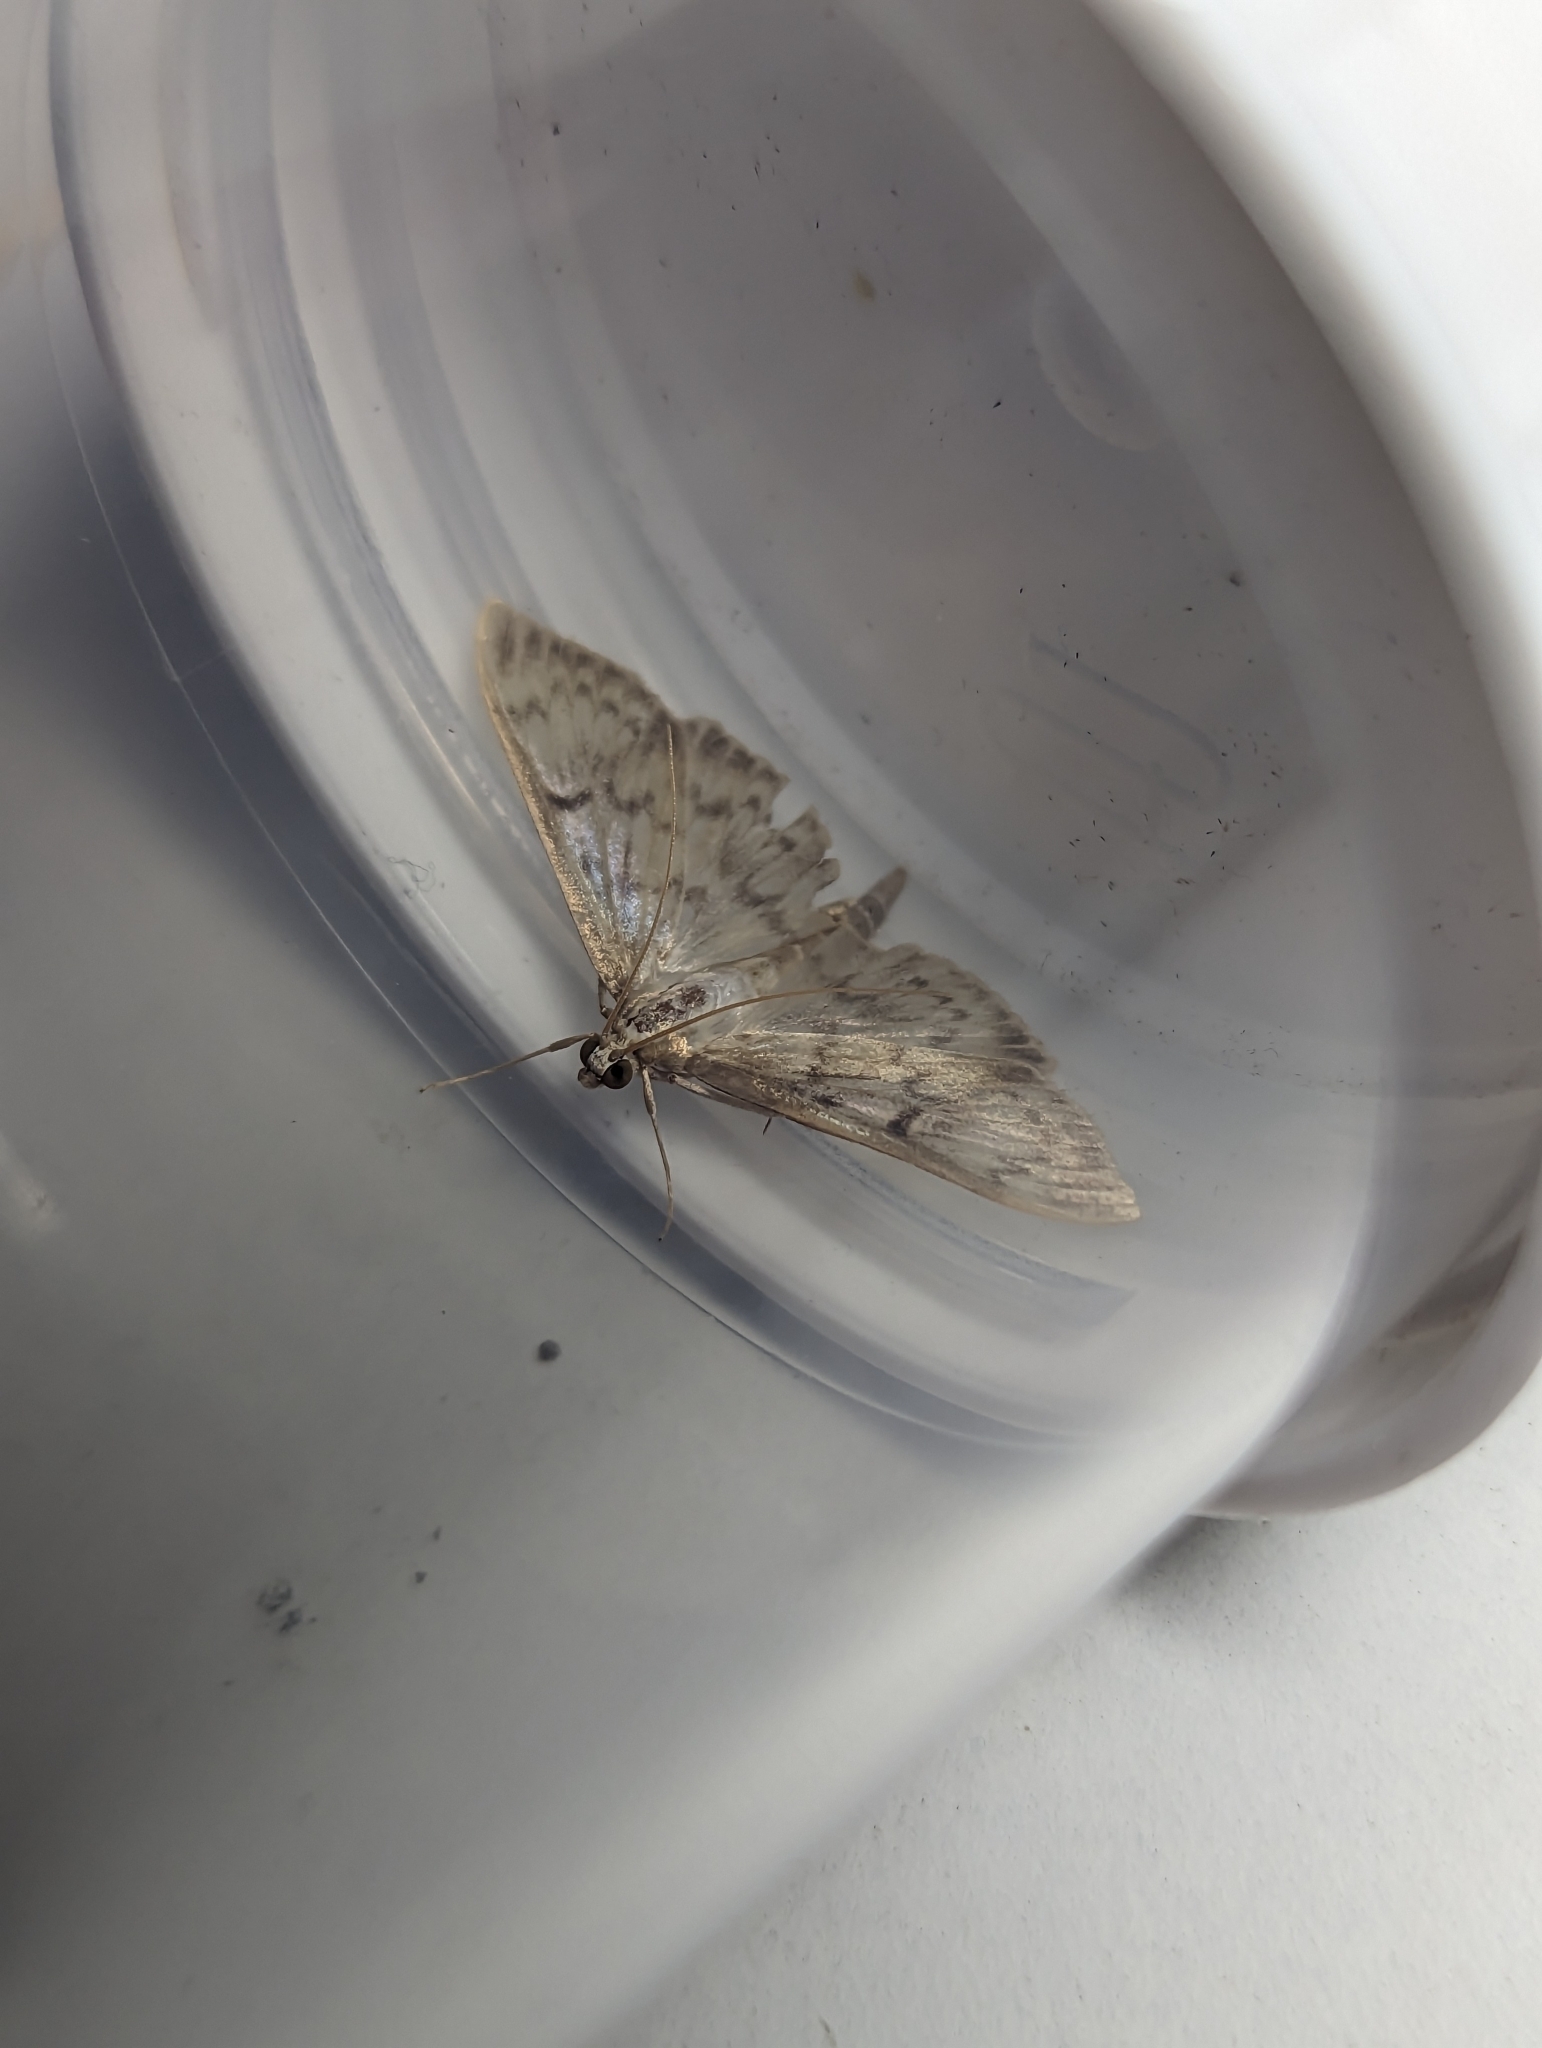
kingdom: Animalia
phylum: Arthropoda
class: Insecta
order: Lepidoptera
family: Crambidae
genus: Patania
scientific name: Patania ruralis
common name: Mother of pearl
